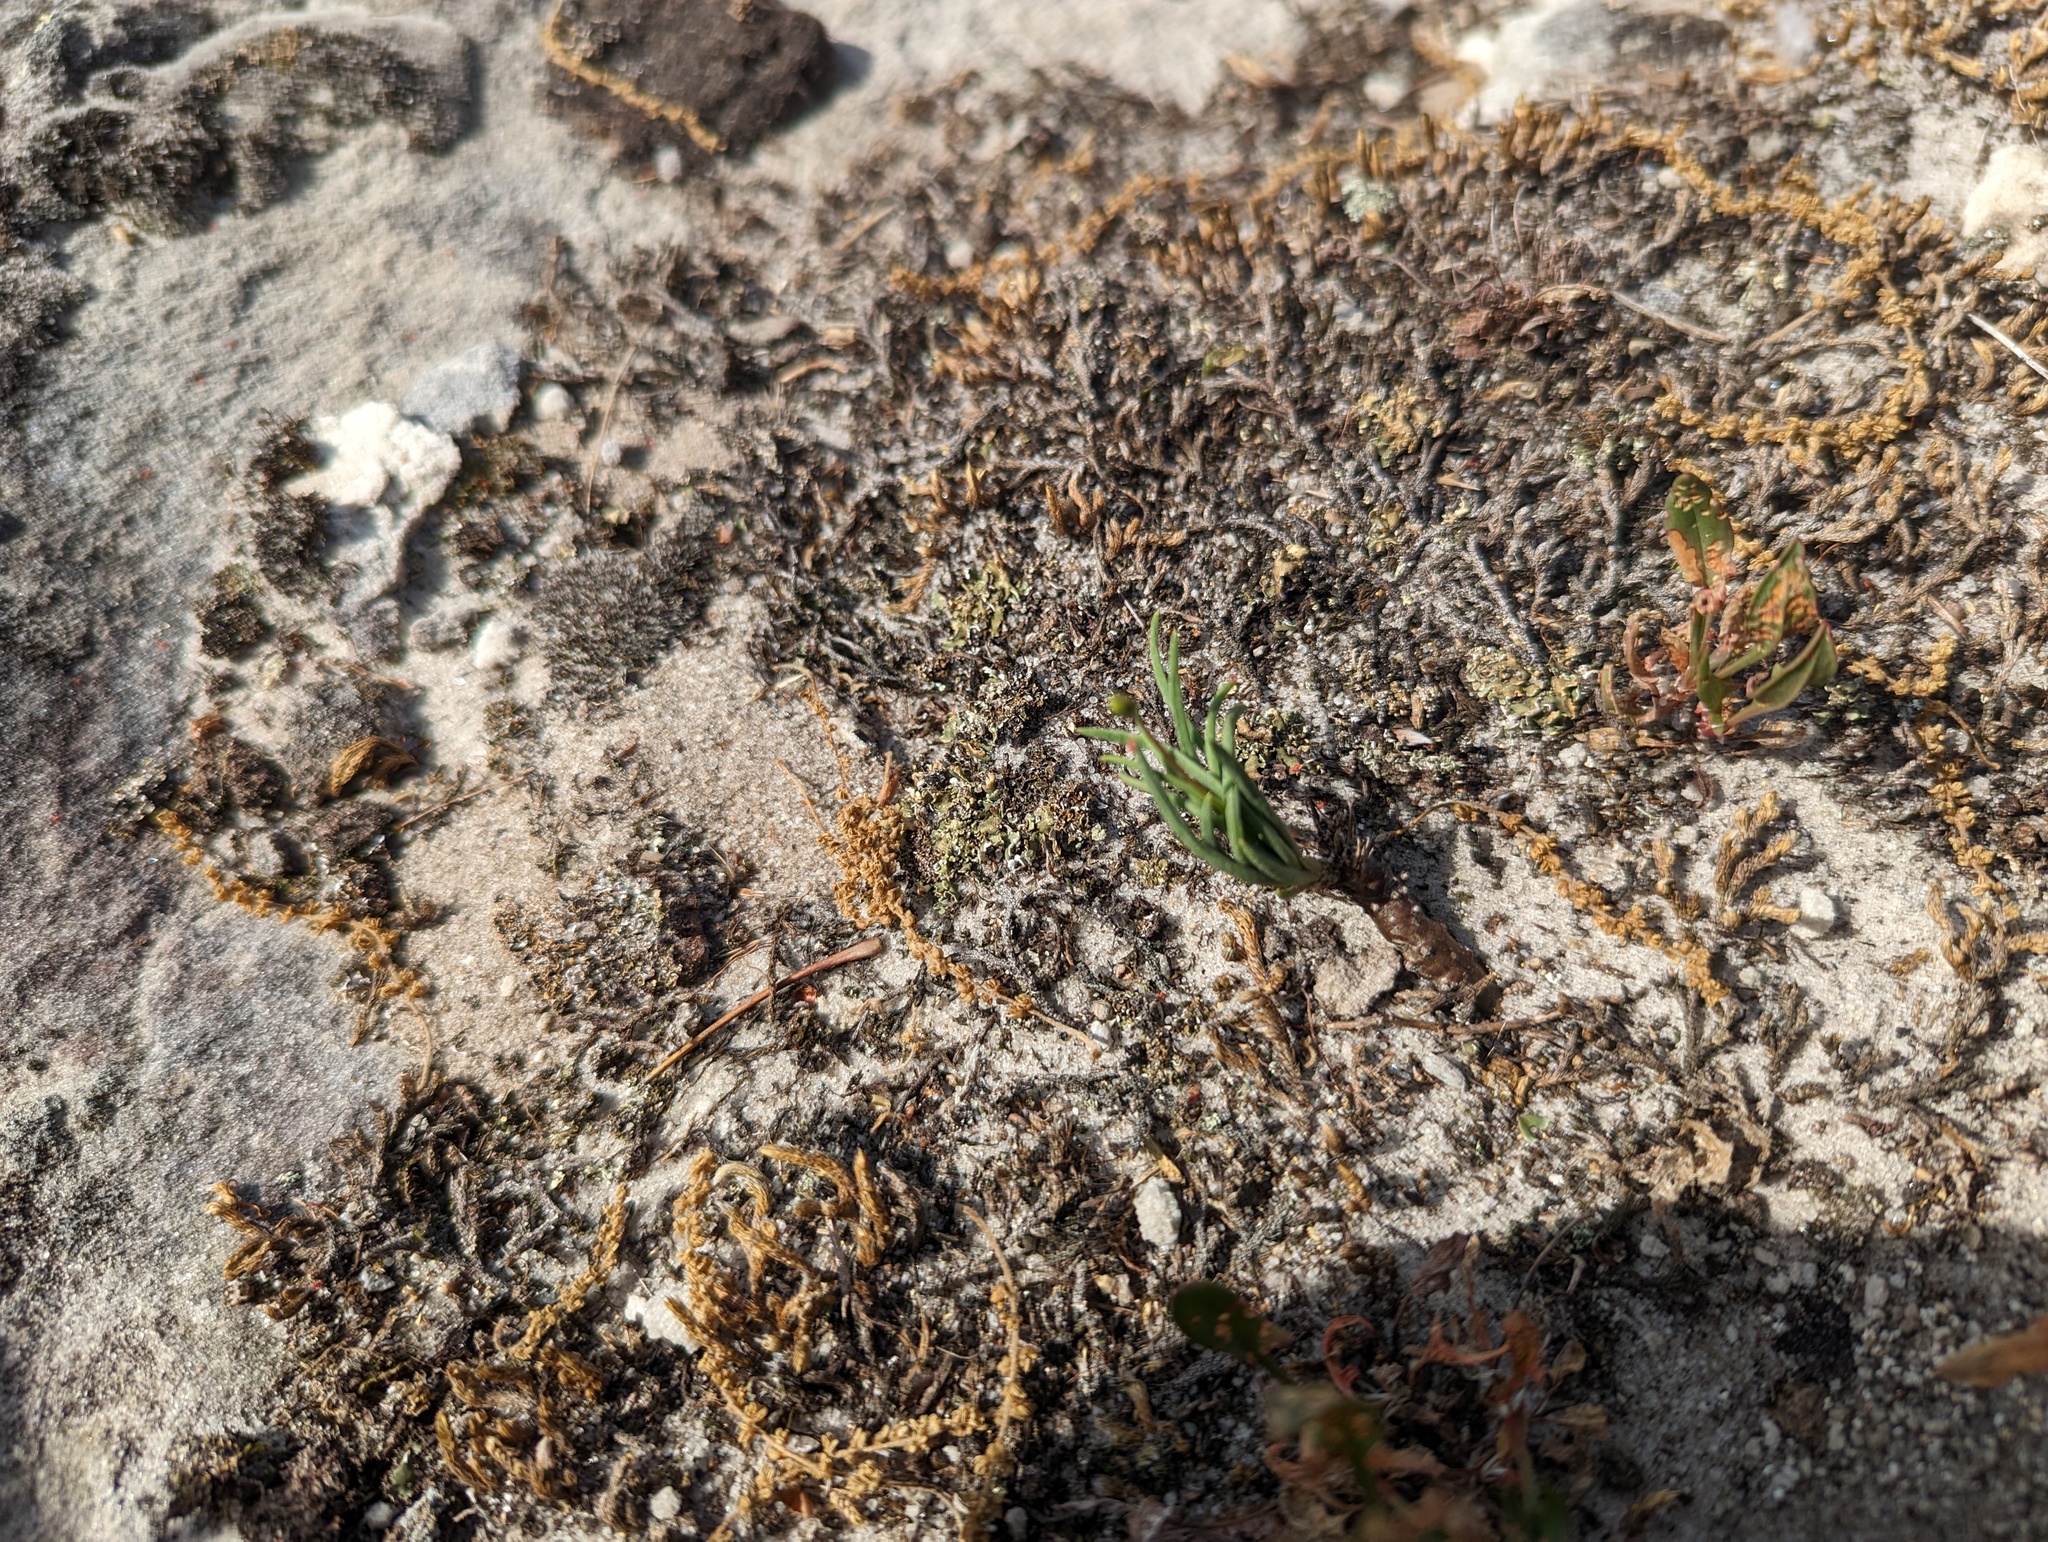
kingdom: Plantae
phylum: Tracheophyta
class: Magnoliopsida
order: Caryophyllales
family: Montiaceae
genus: Phemeranthus
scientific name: Phemeranthus rugospermus
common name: Prairie fameflower
